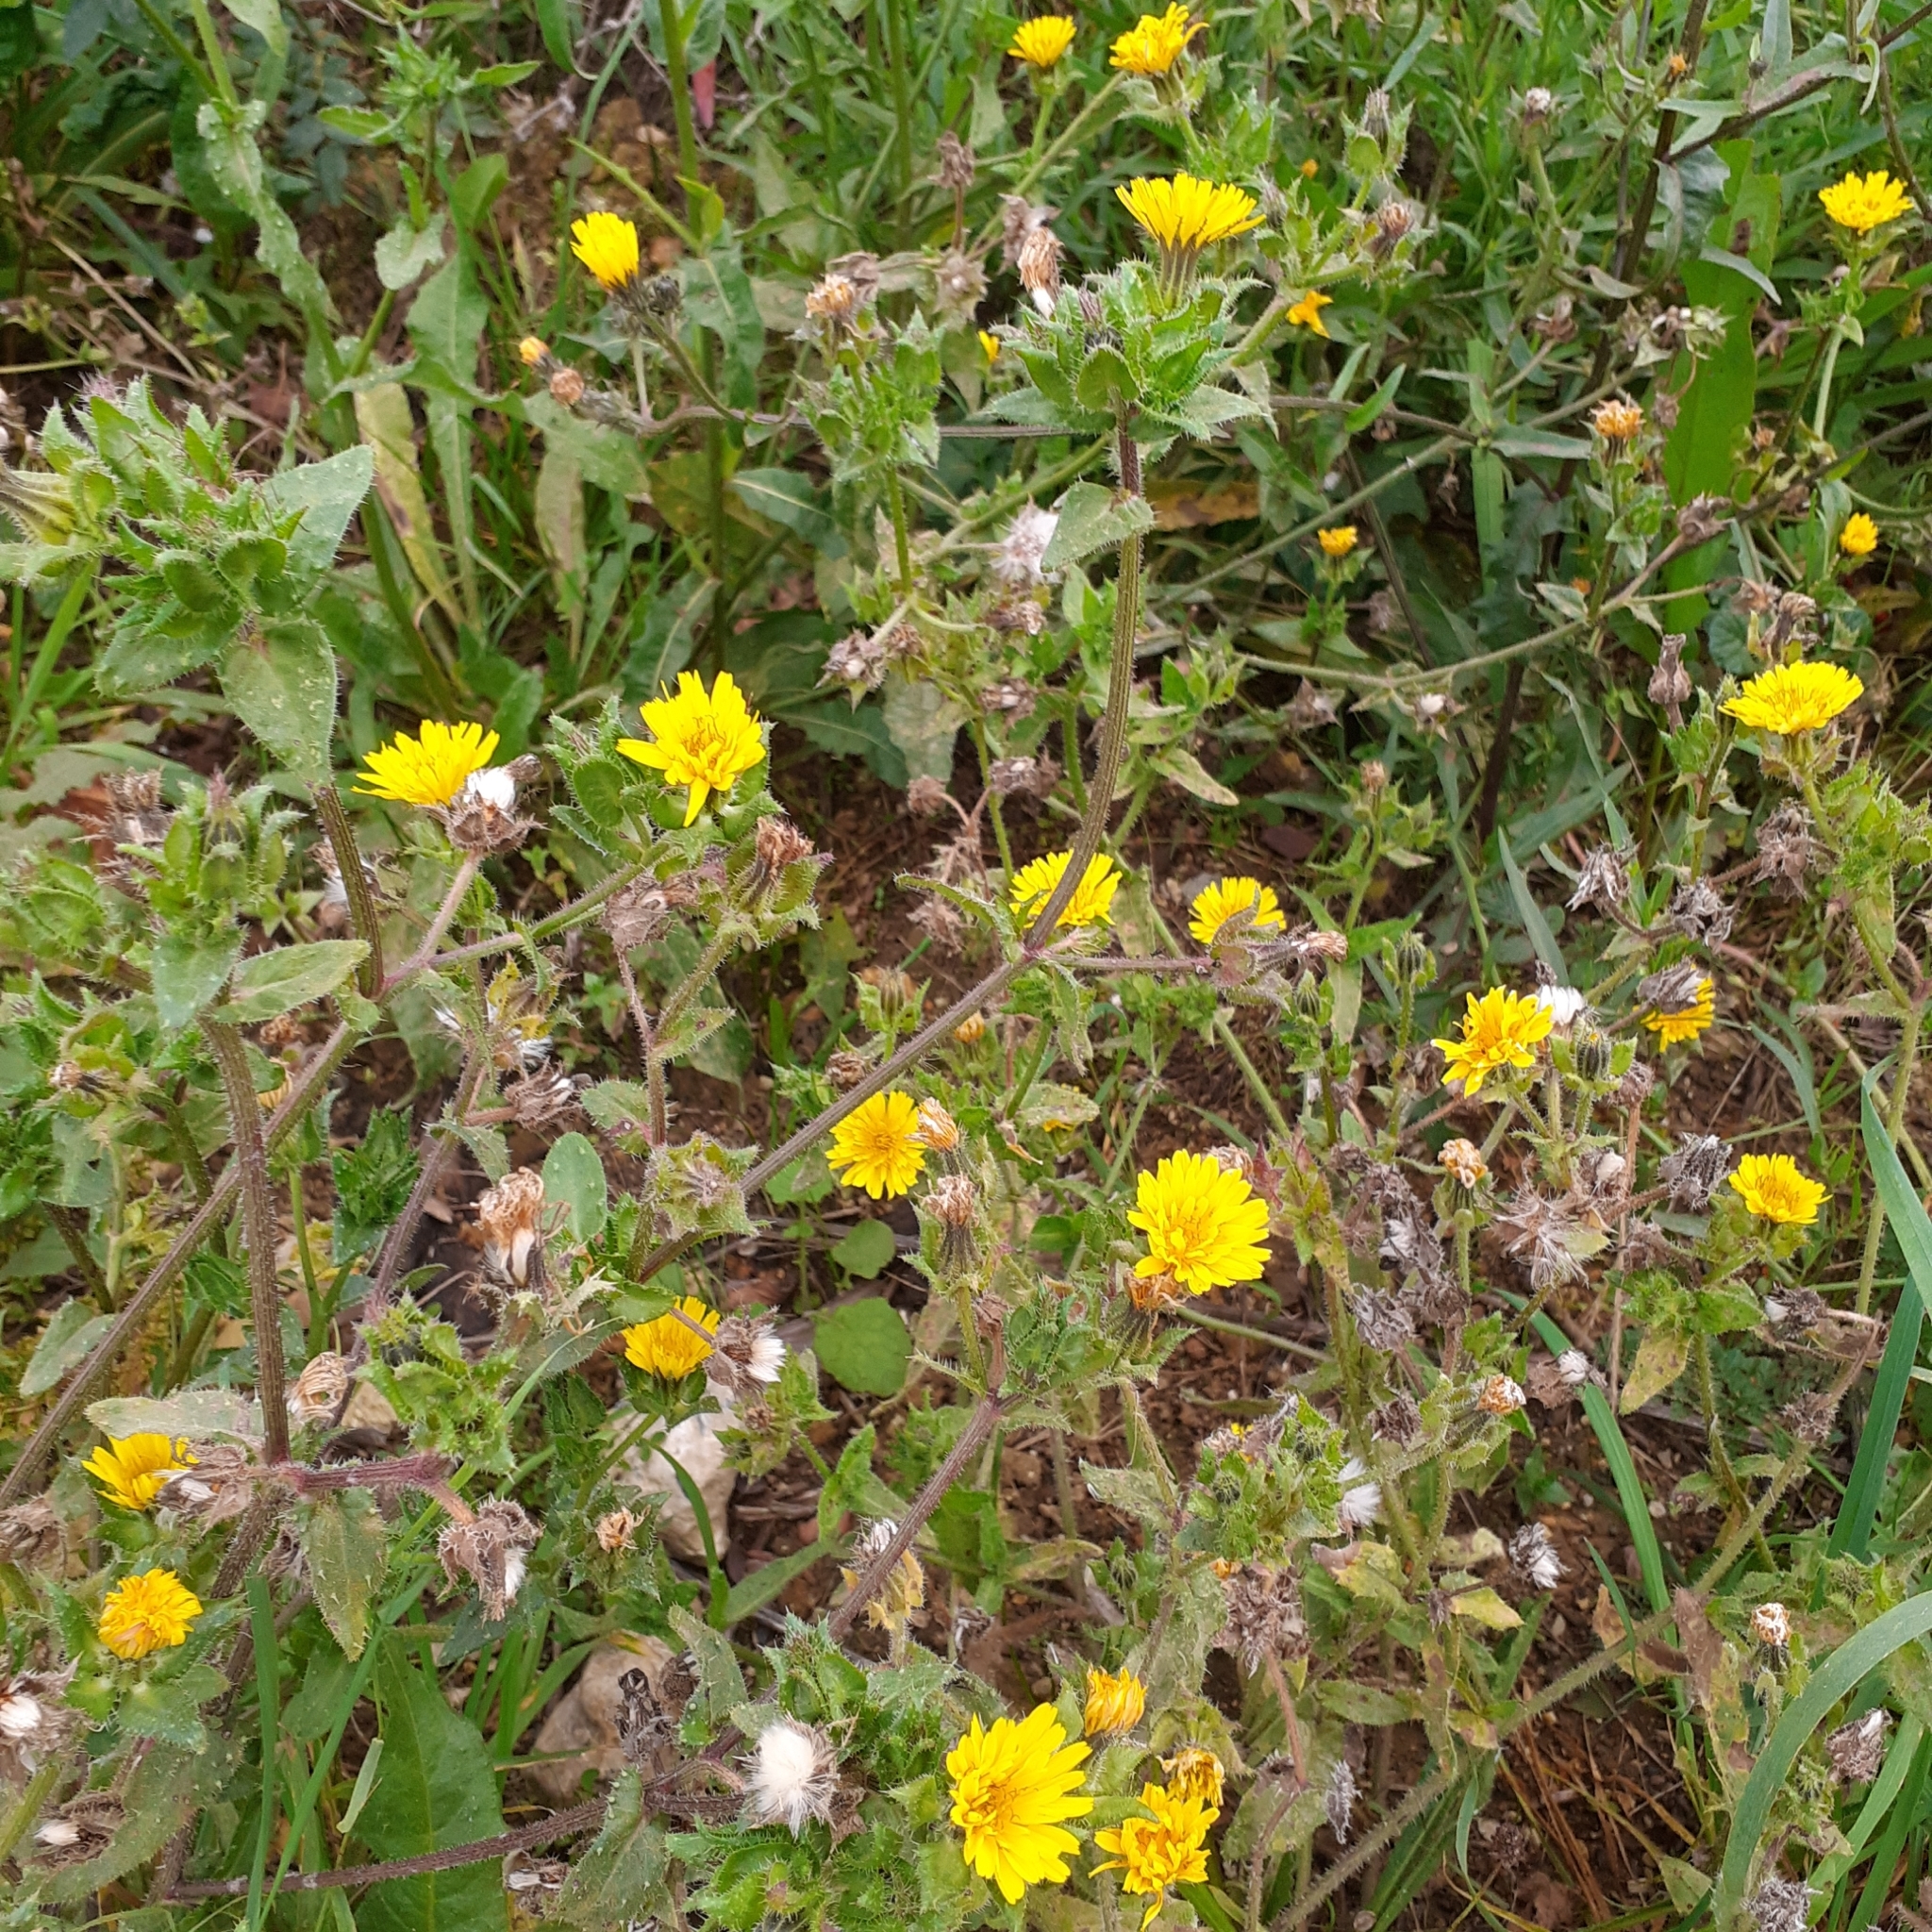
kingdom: Plantae
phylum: Tracheophyta
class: Magnoliopsida
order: Asterales
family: Asteraceae
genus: Helminthotheca
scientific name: Helminthotheca echioides
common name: Ox-tongue
